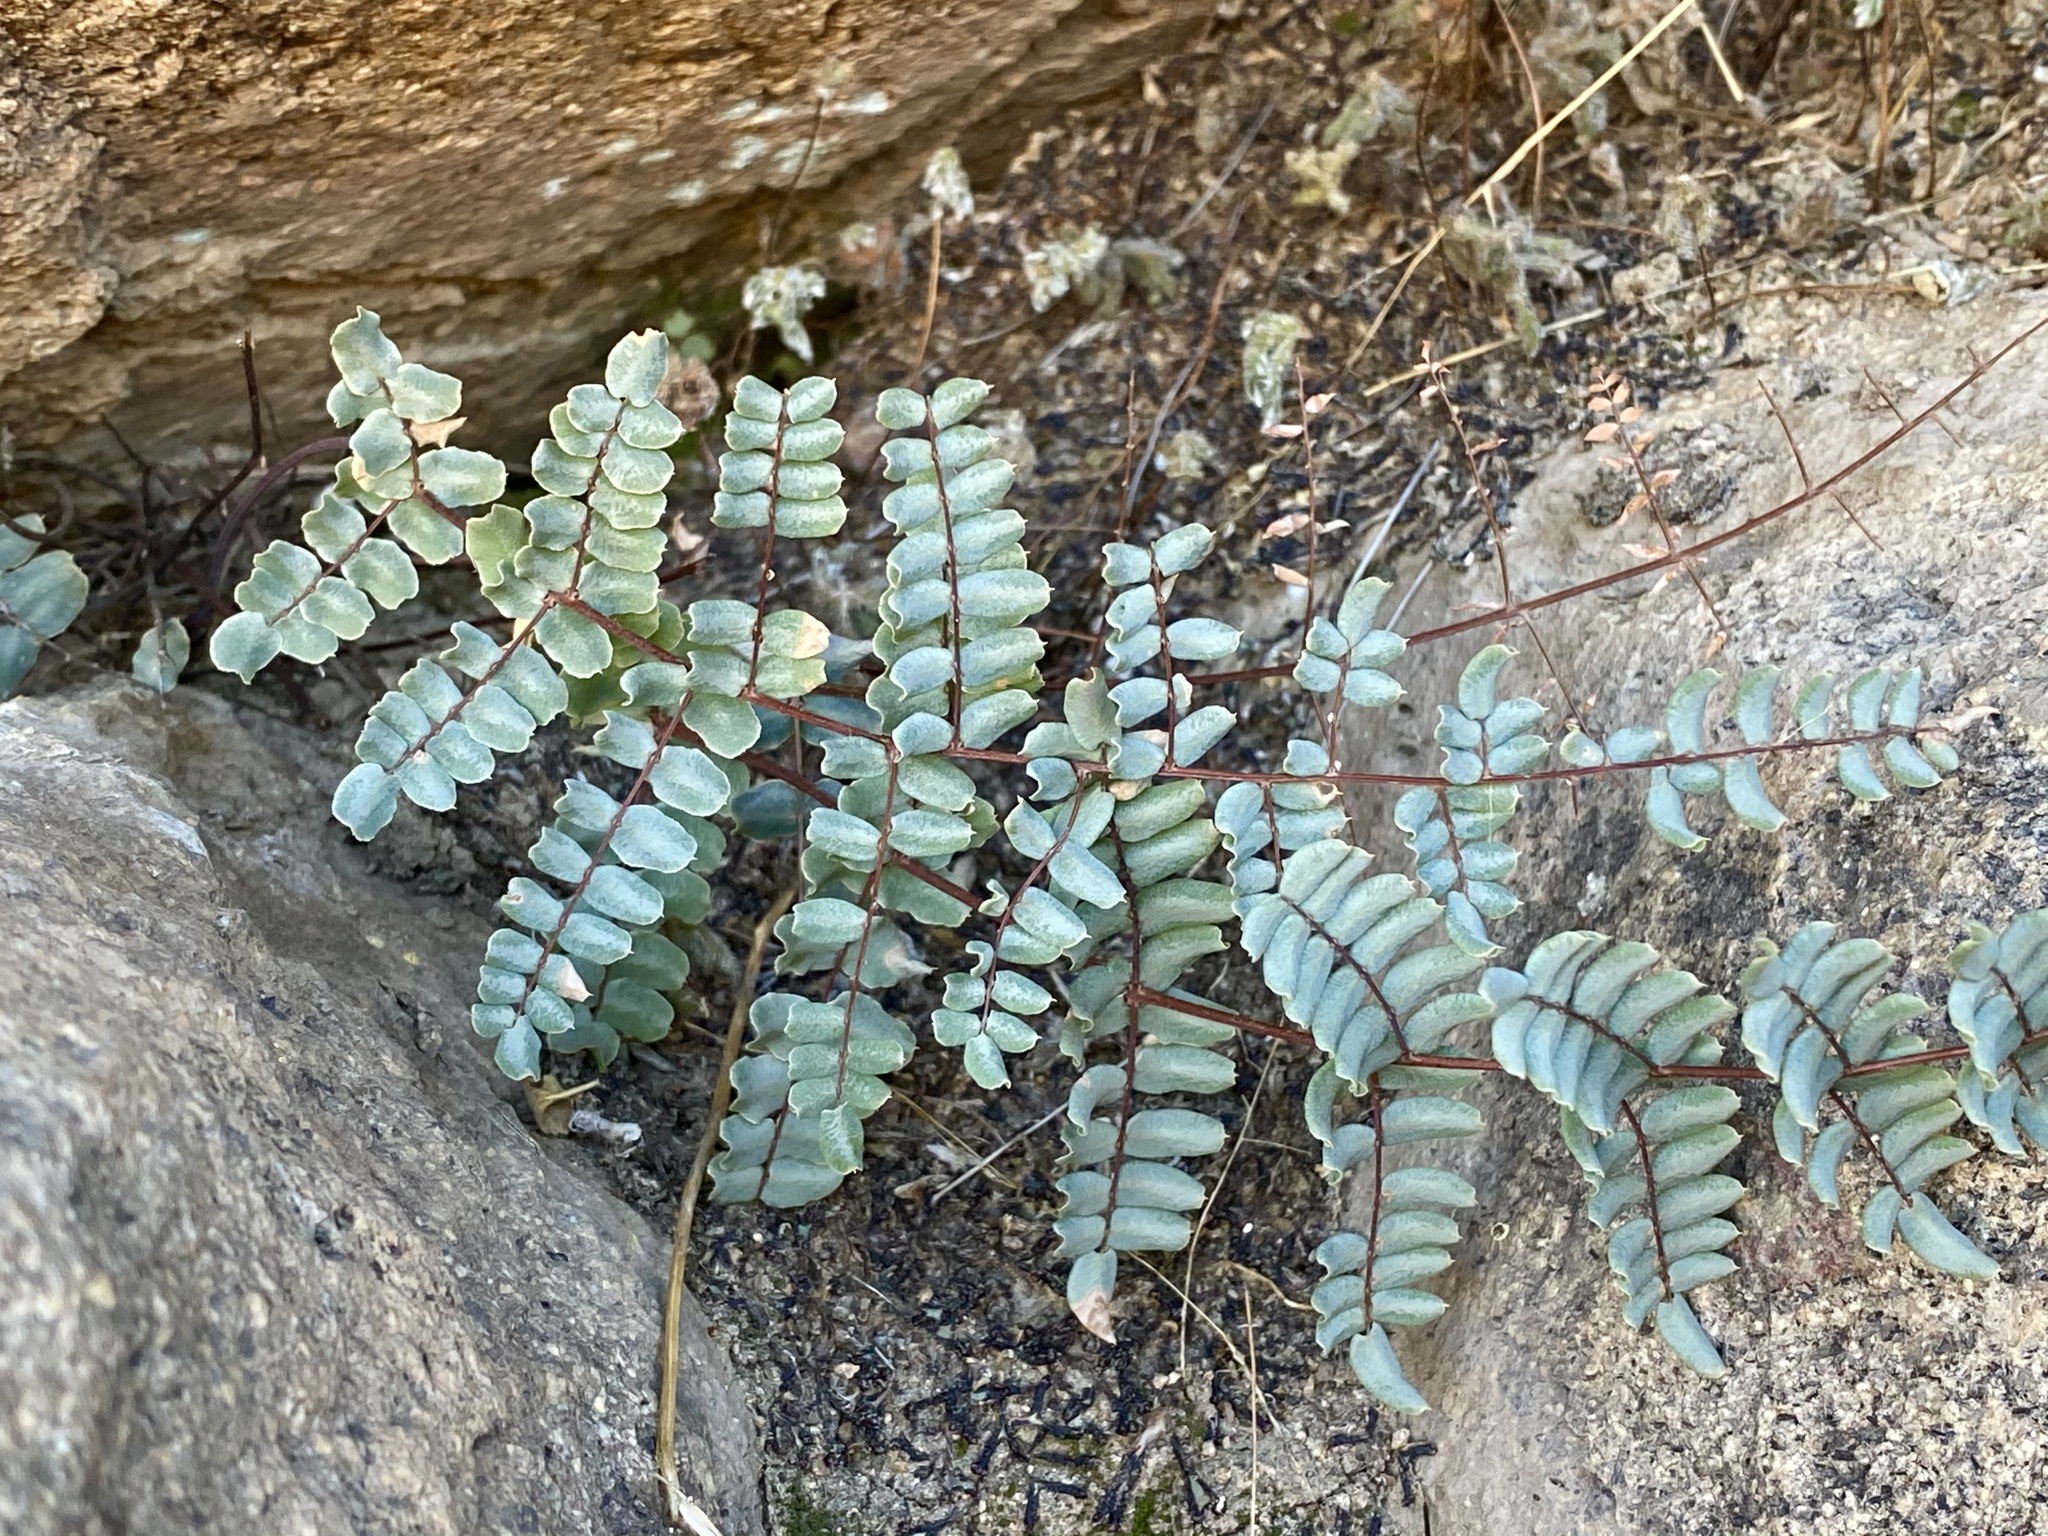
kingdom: Plantae
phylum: Tracheophyta
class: Polypodiopsida
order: Polypodiales
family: Pteridaceae
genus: Pellaea
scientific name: Pellaea truncata
